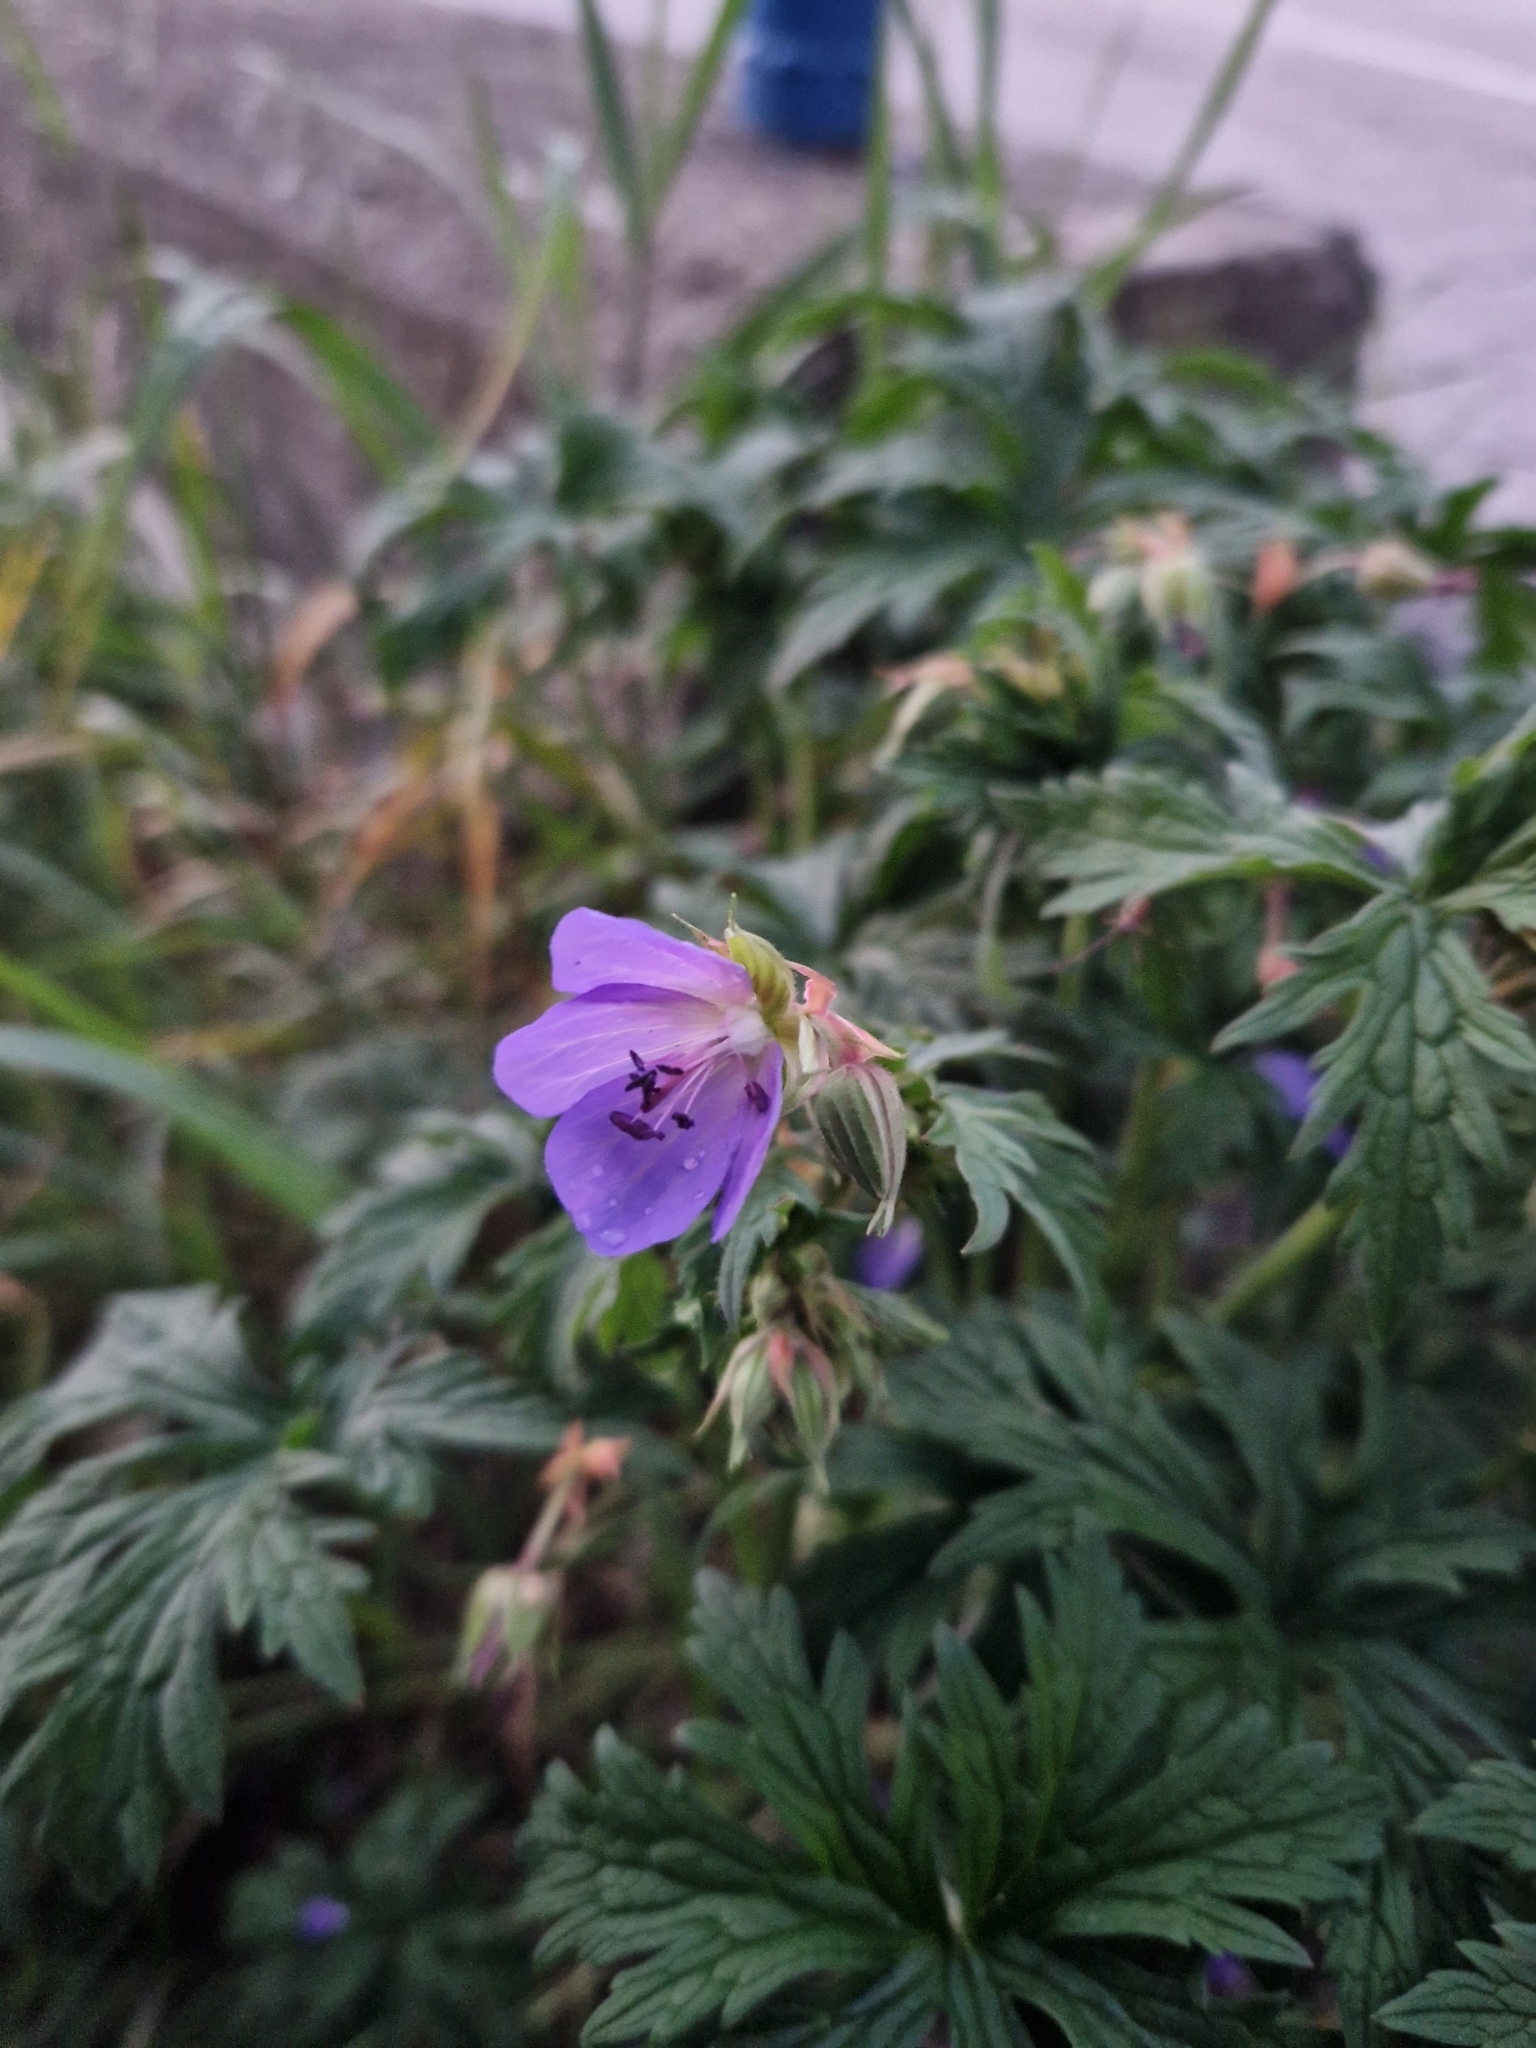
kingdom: Plantae
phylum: Tracheophyta
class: Magnoliopsida
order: Geraniales
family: Geraniaceae
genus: Geranium
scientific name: Geranium pratense
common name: Meadow crane's-bill
